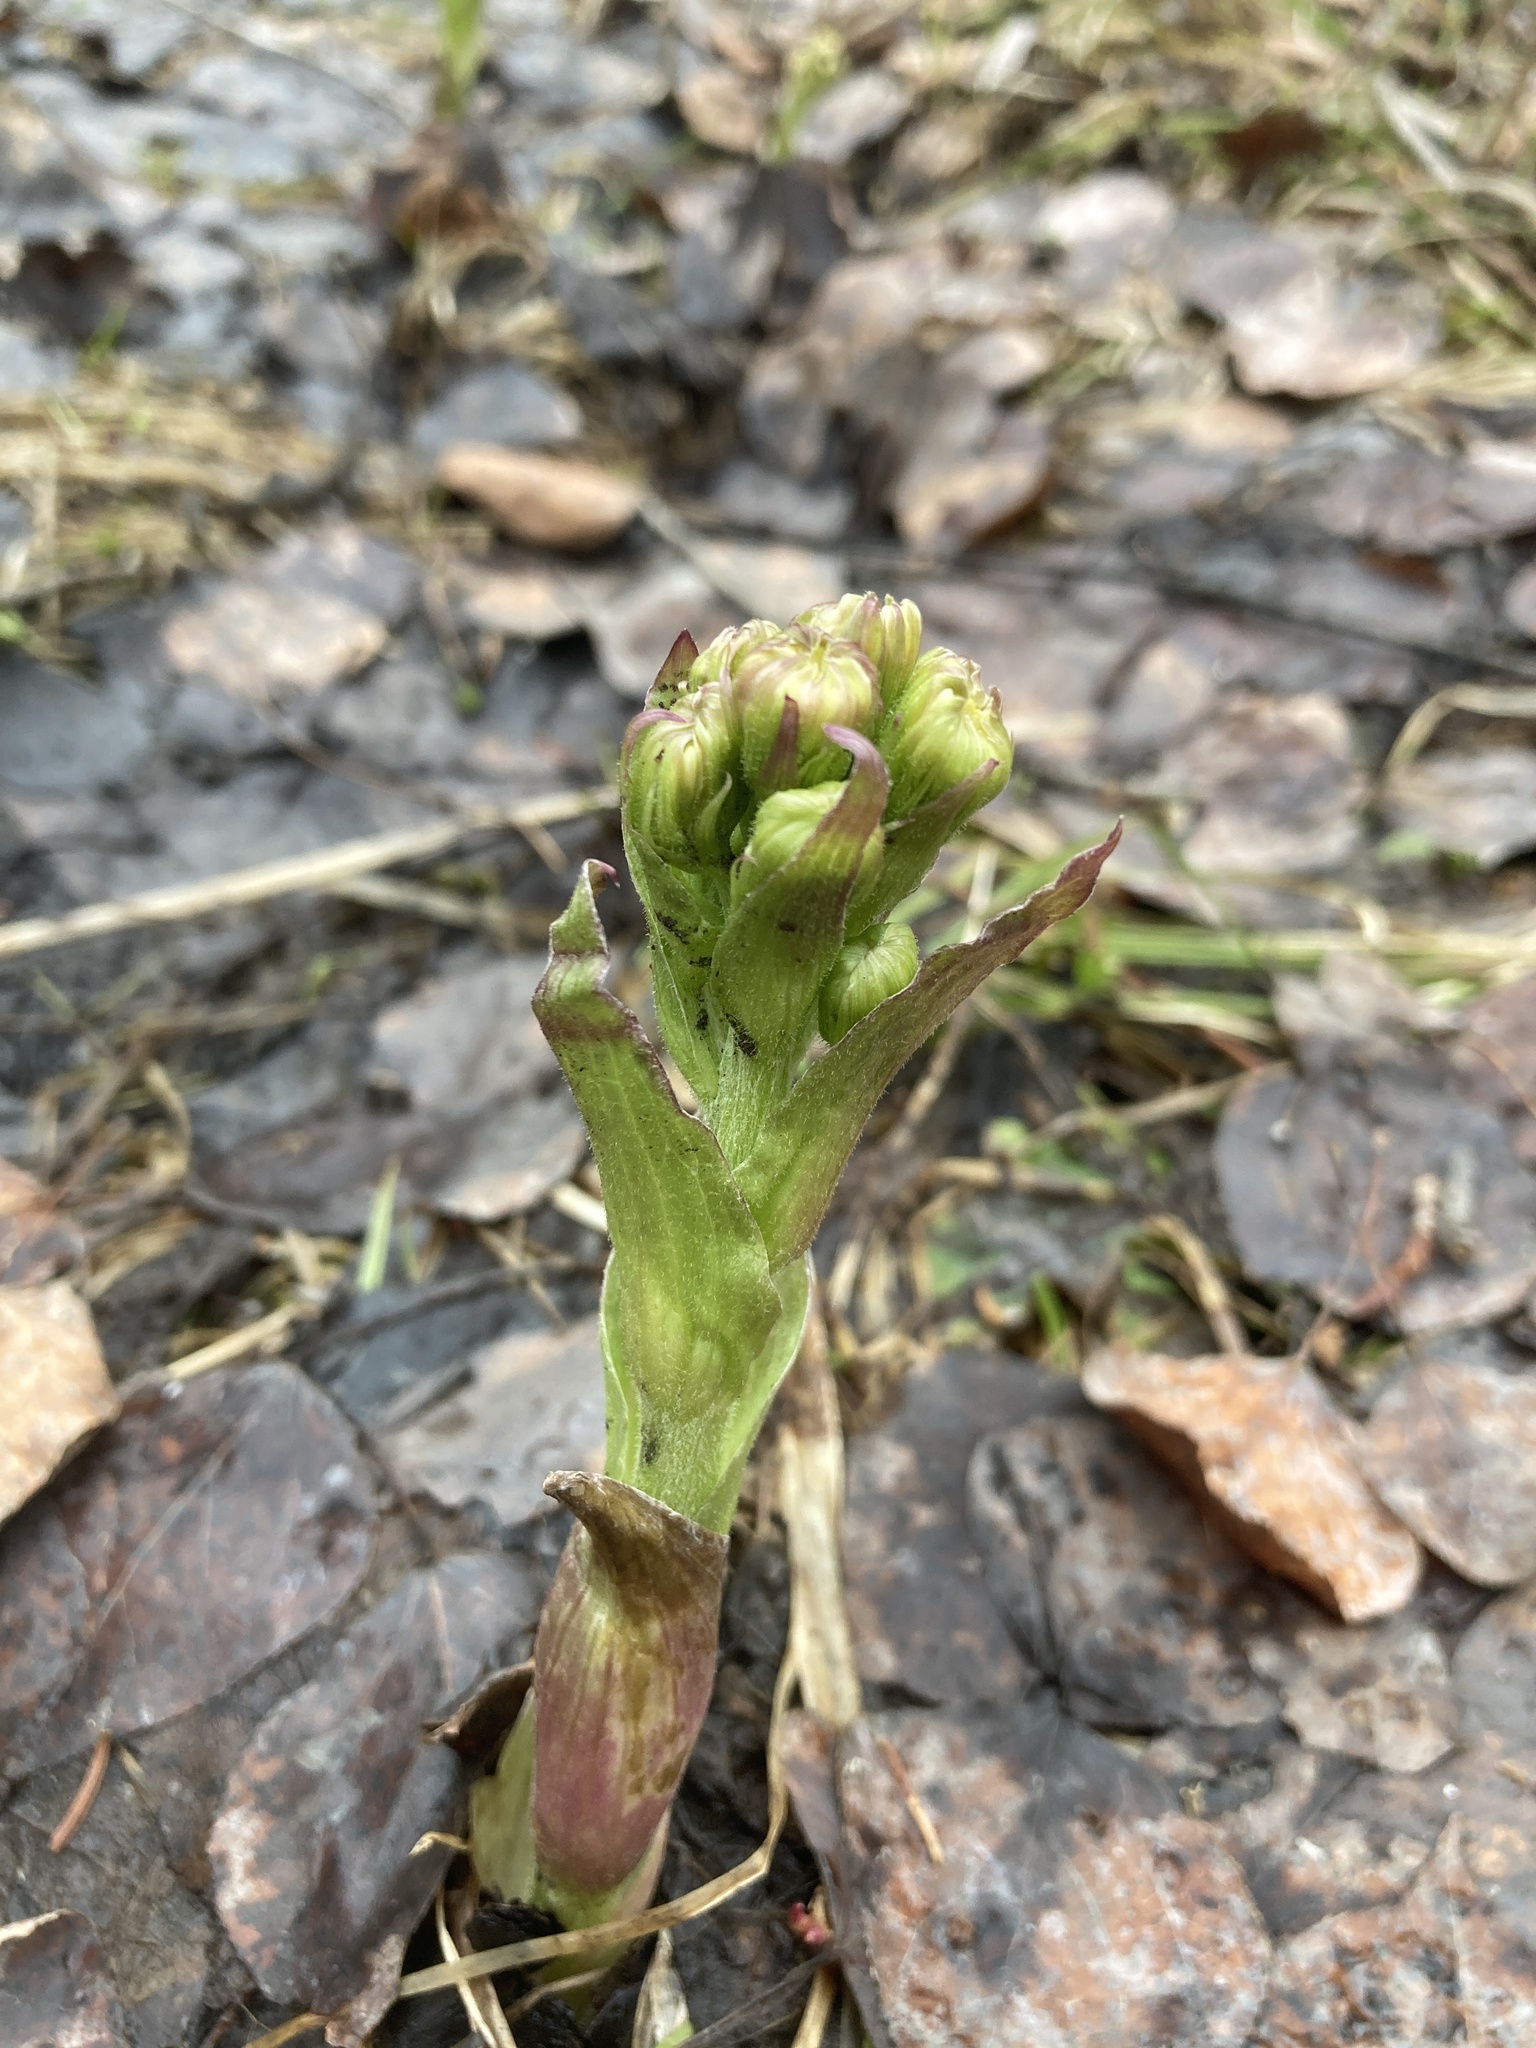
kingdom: Plantae
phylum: Tracheophyta
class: Magnoliopsida
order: Asterales
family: Asteraceae
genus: Petasites
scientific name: Petasites frigidus
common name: Arctic butterbur
